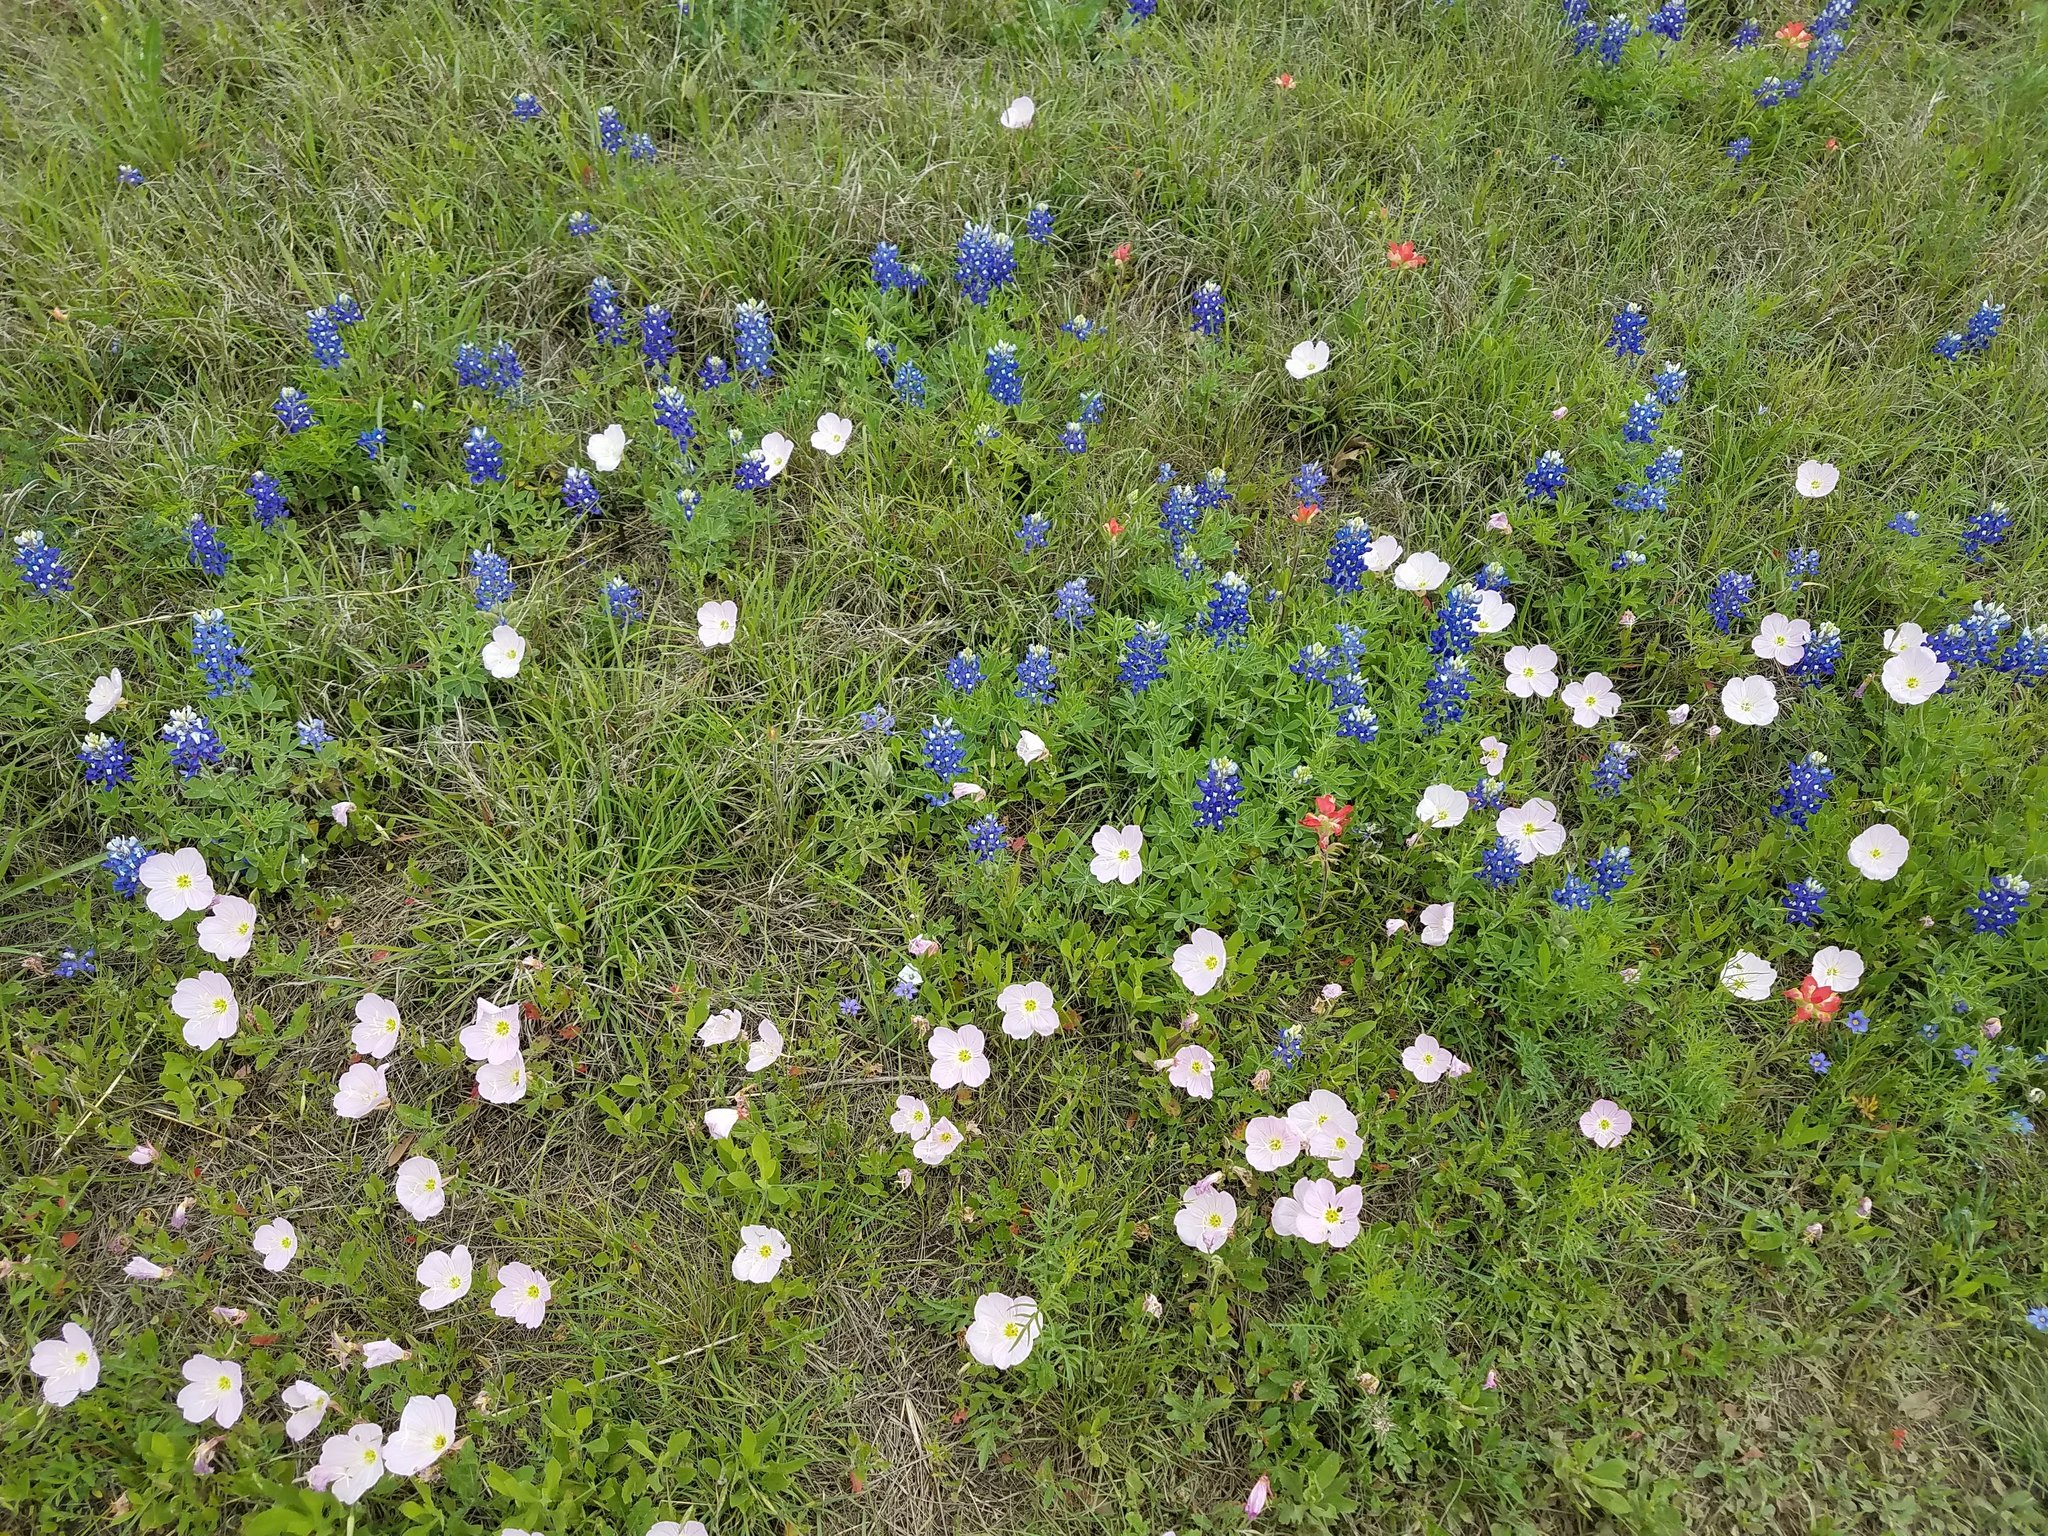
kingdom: Plantae
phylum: Tracheophyta
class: Magnoliopsida
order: Myrtales
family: Onagraceae
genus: Oenothera
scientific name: Oenothera speciosa
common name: White evening-primrose
